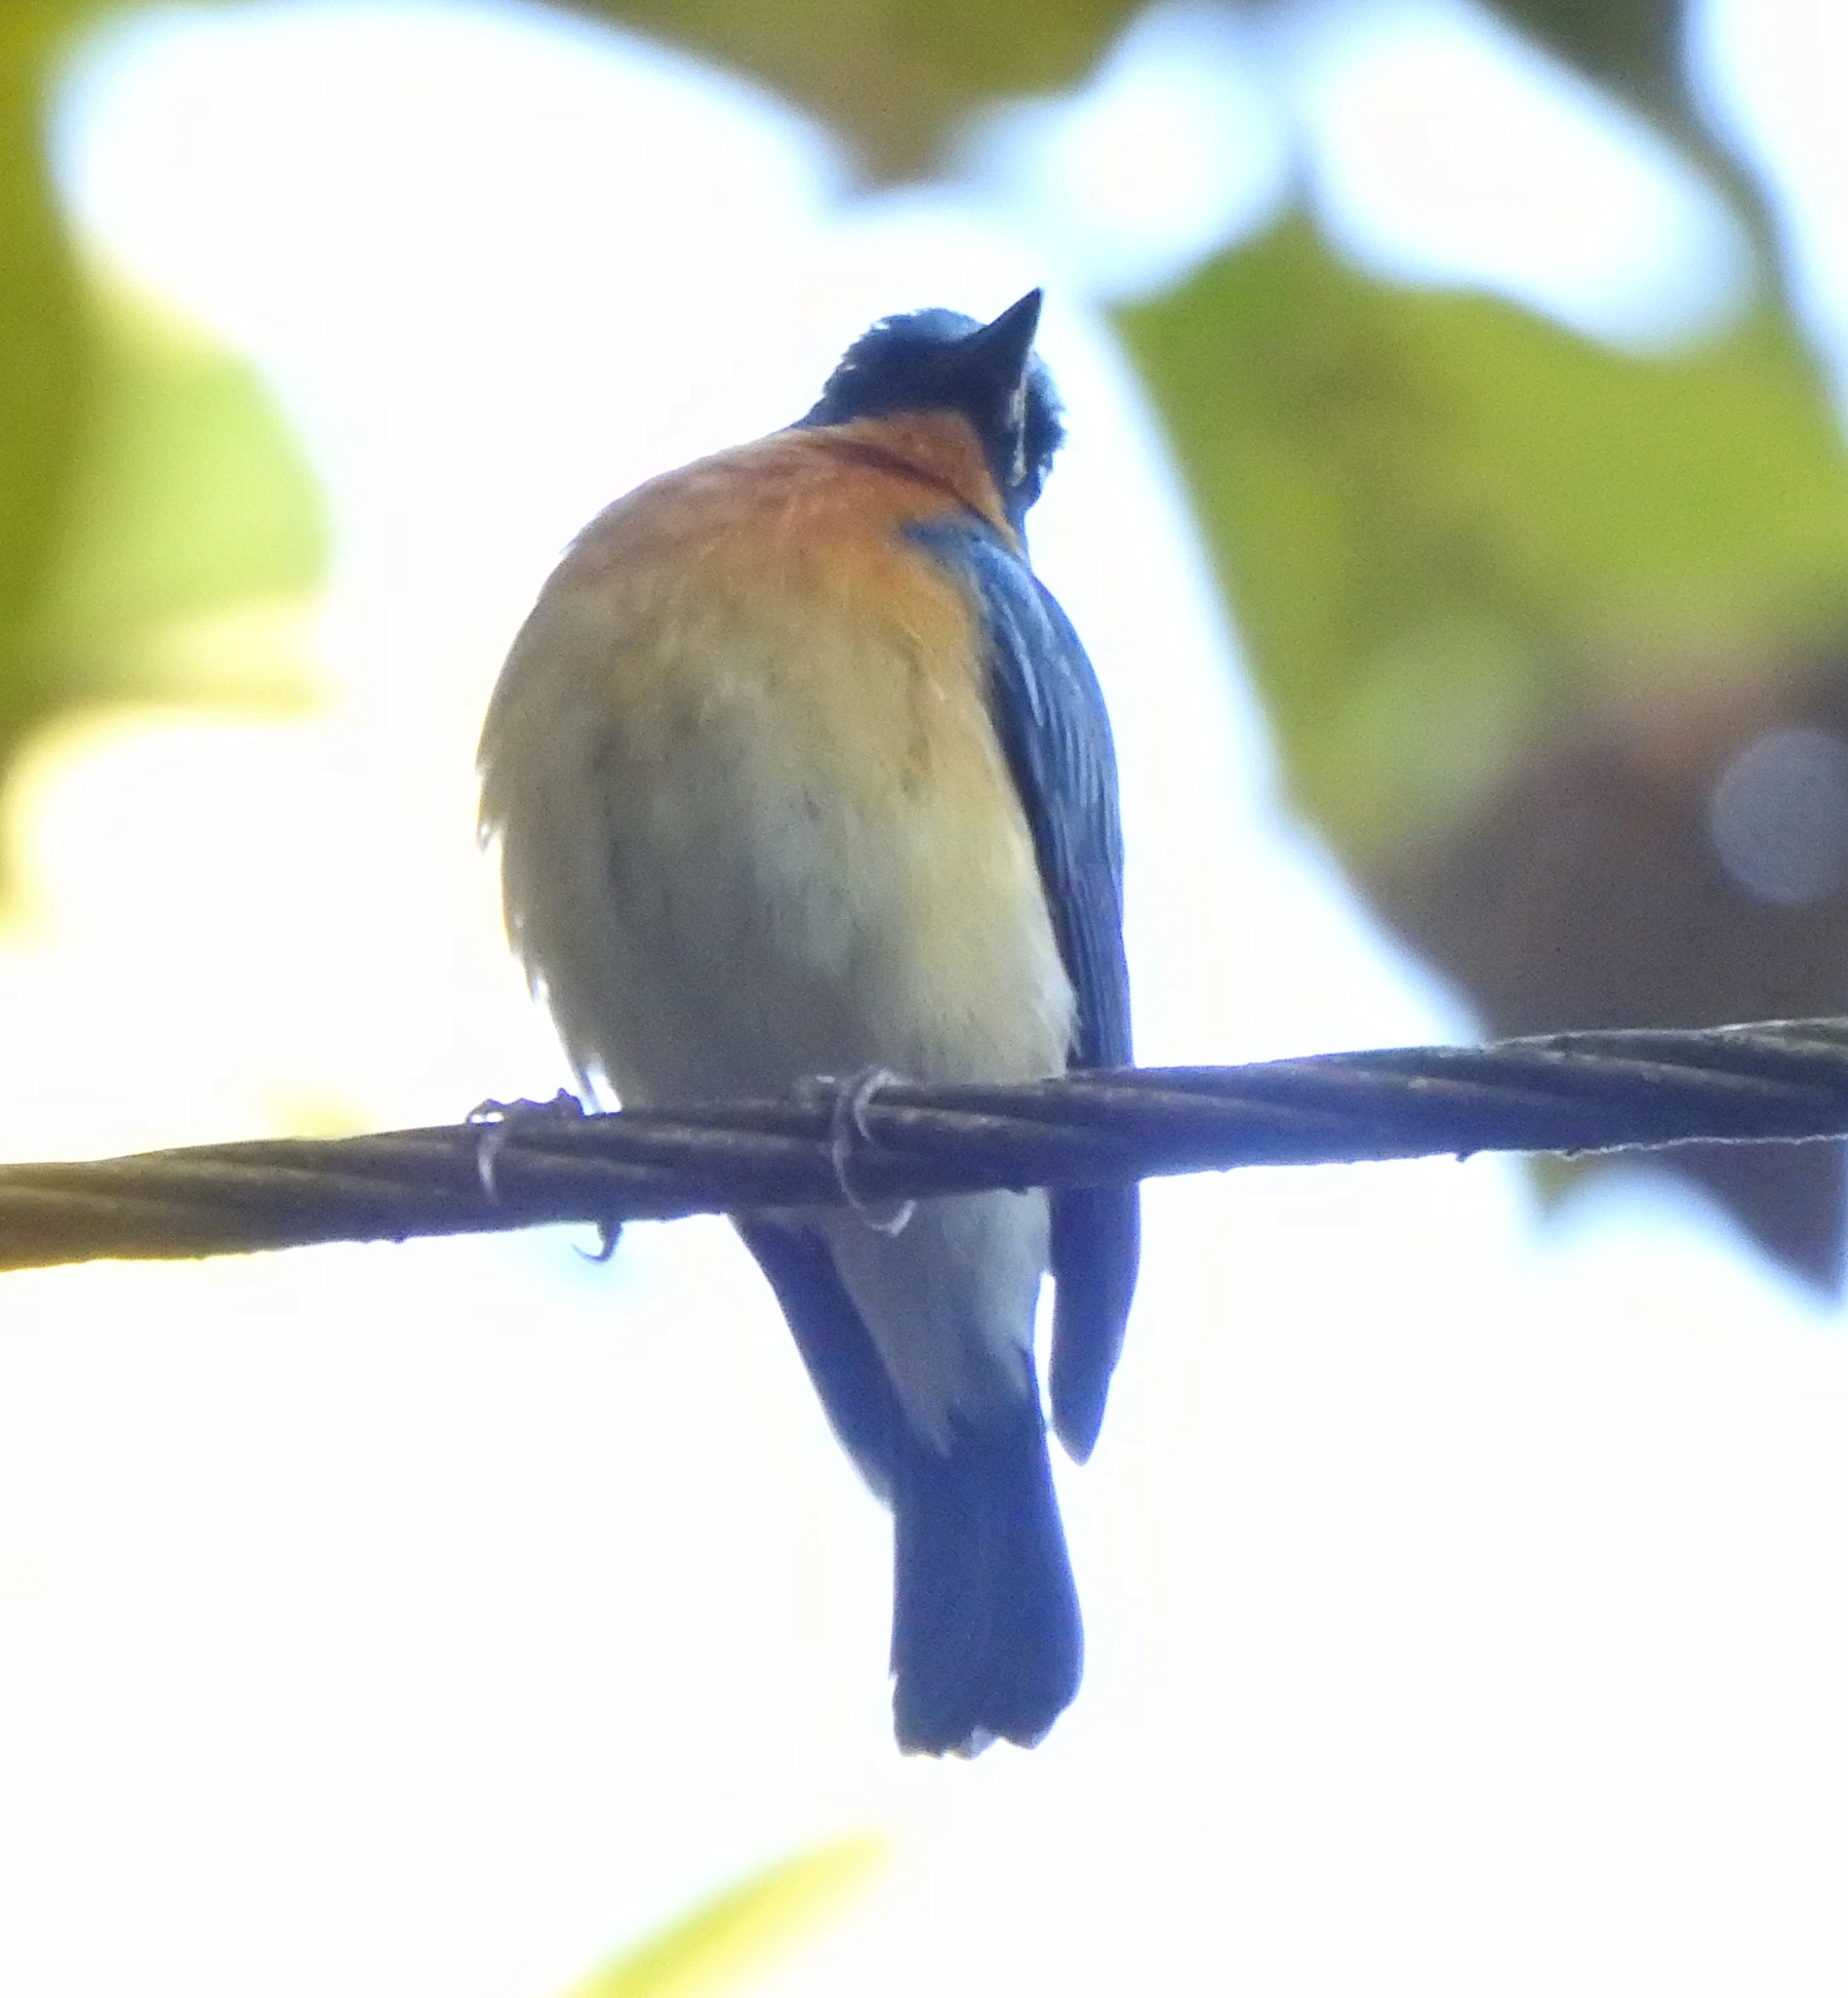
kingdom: Animalia
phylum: Chordata
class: Aves
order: Passeriformes
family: Muscicapidae
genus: Cyornis
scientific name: Cyornis tickelliae
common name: Tickell's blue flycatcher
